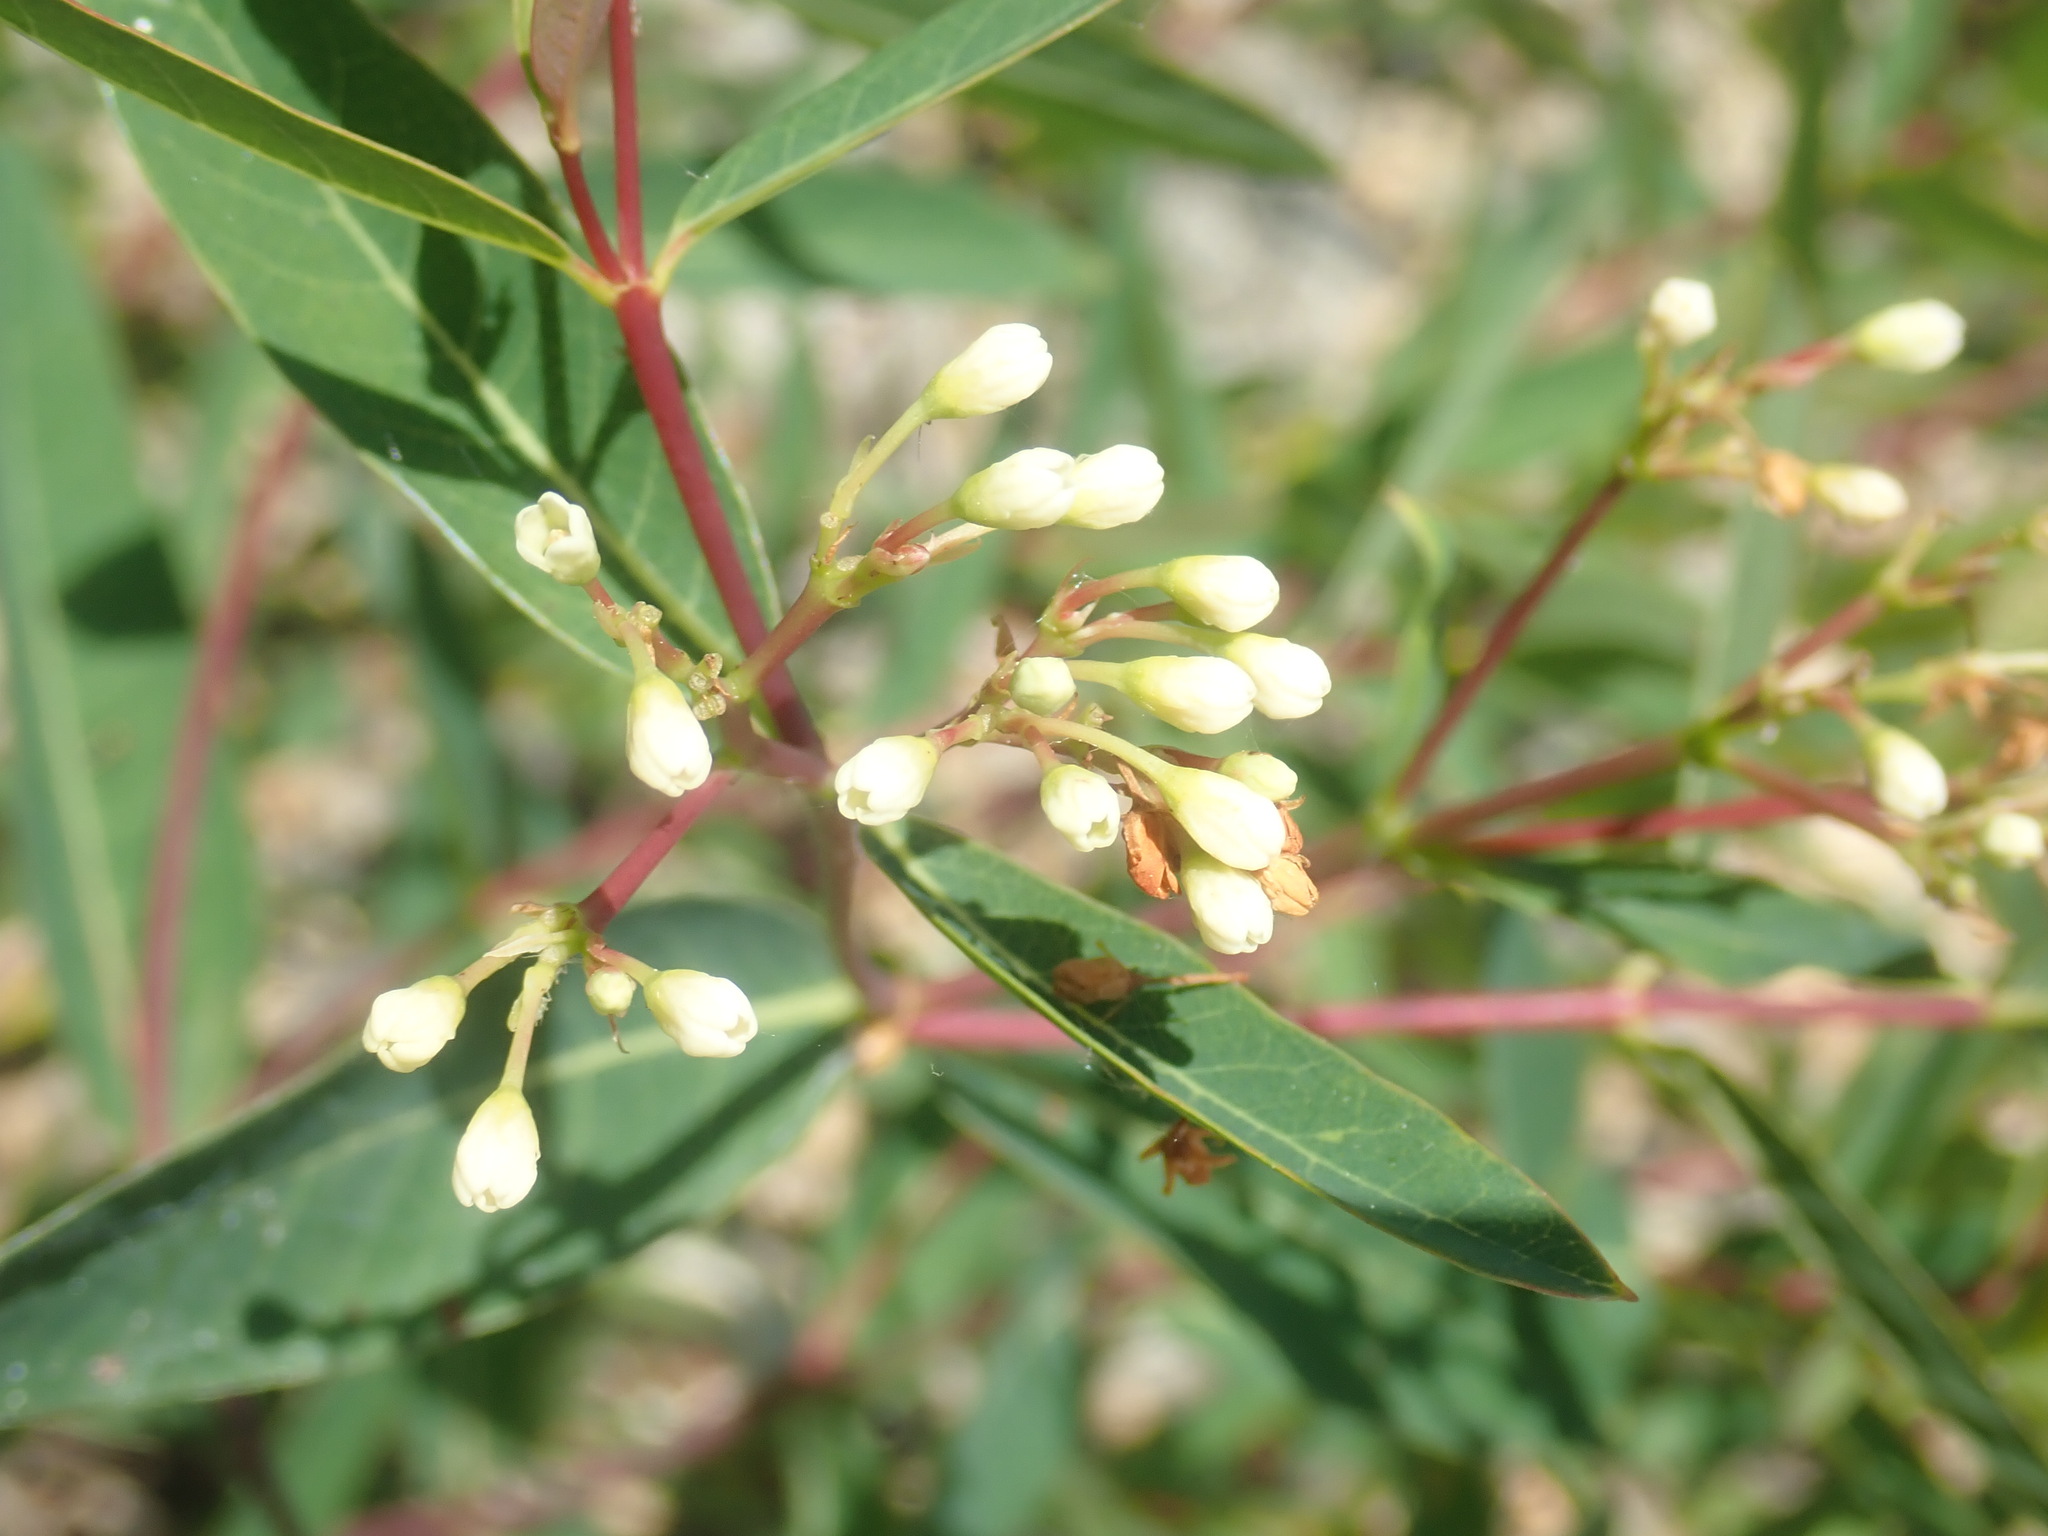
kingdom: Plantae
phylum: Tracheophyta
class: Magnoliopsida
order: Gentianales
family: Apocynaceae
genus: Apocynum
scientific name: Apocynum cannabinum
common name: Hemp dogbane
